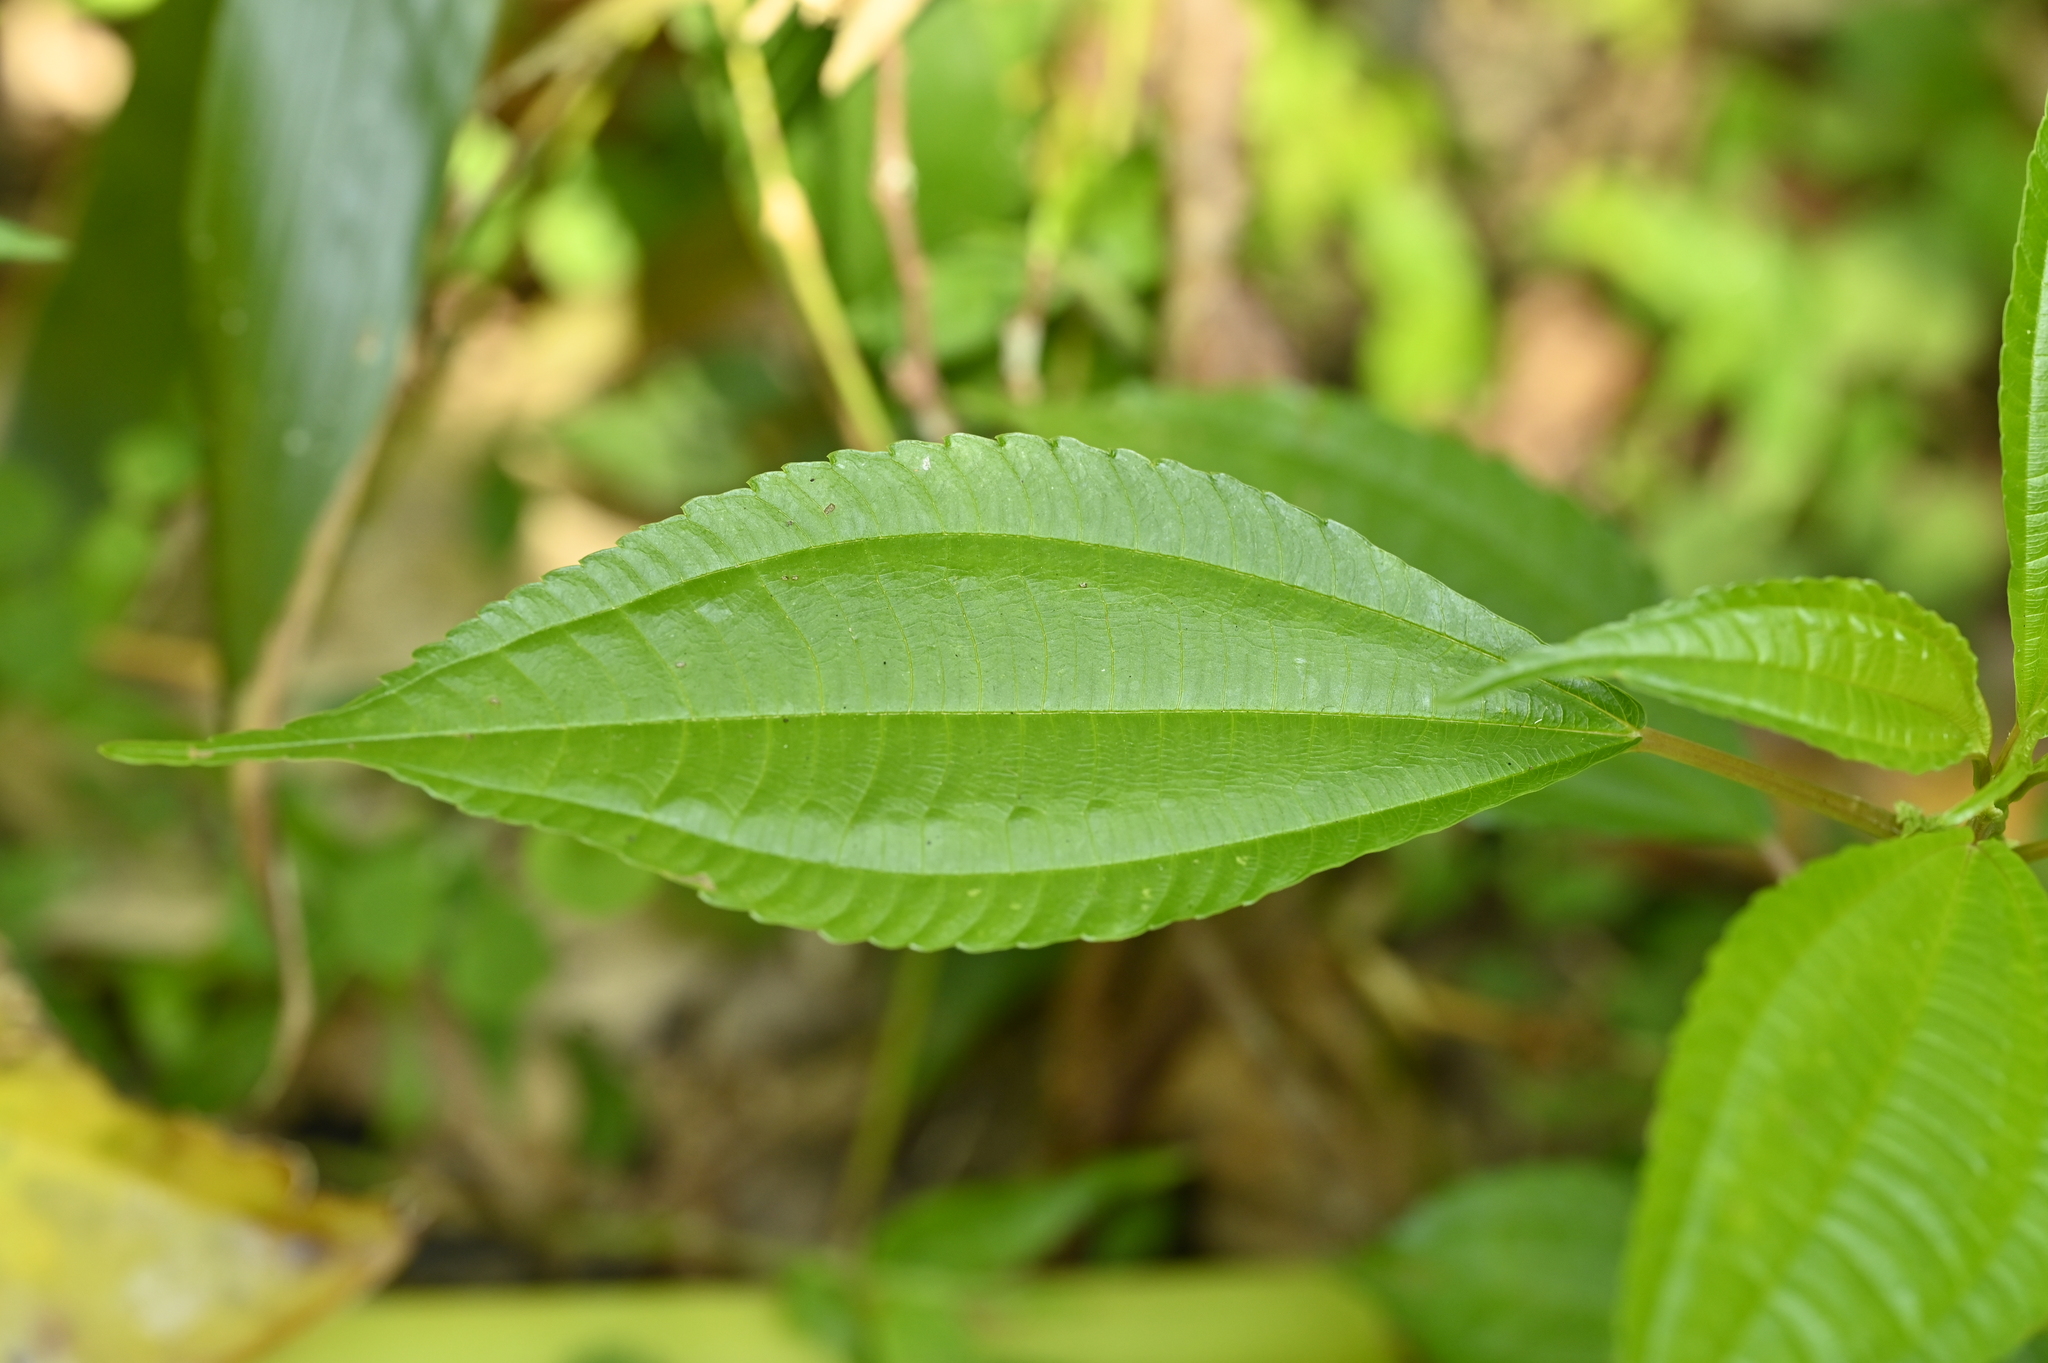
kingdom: Plantae
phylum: Tracheophyta
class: Magnoliopsida
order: Rosales
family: Urticaceae
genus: Pilea
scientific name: Pilea melastomoides
